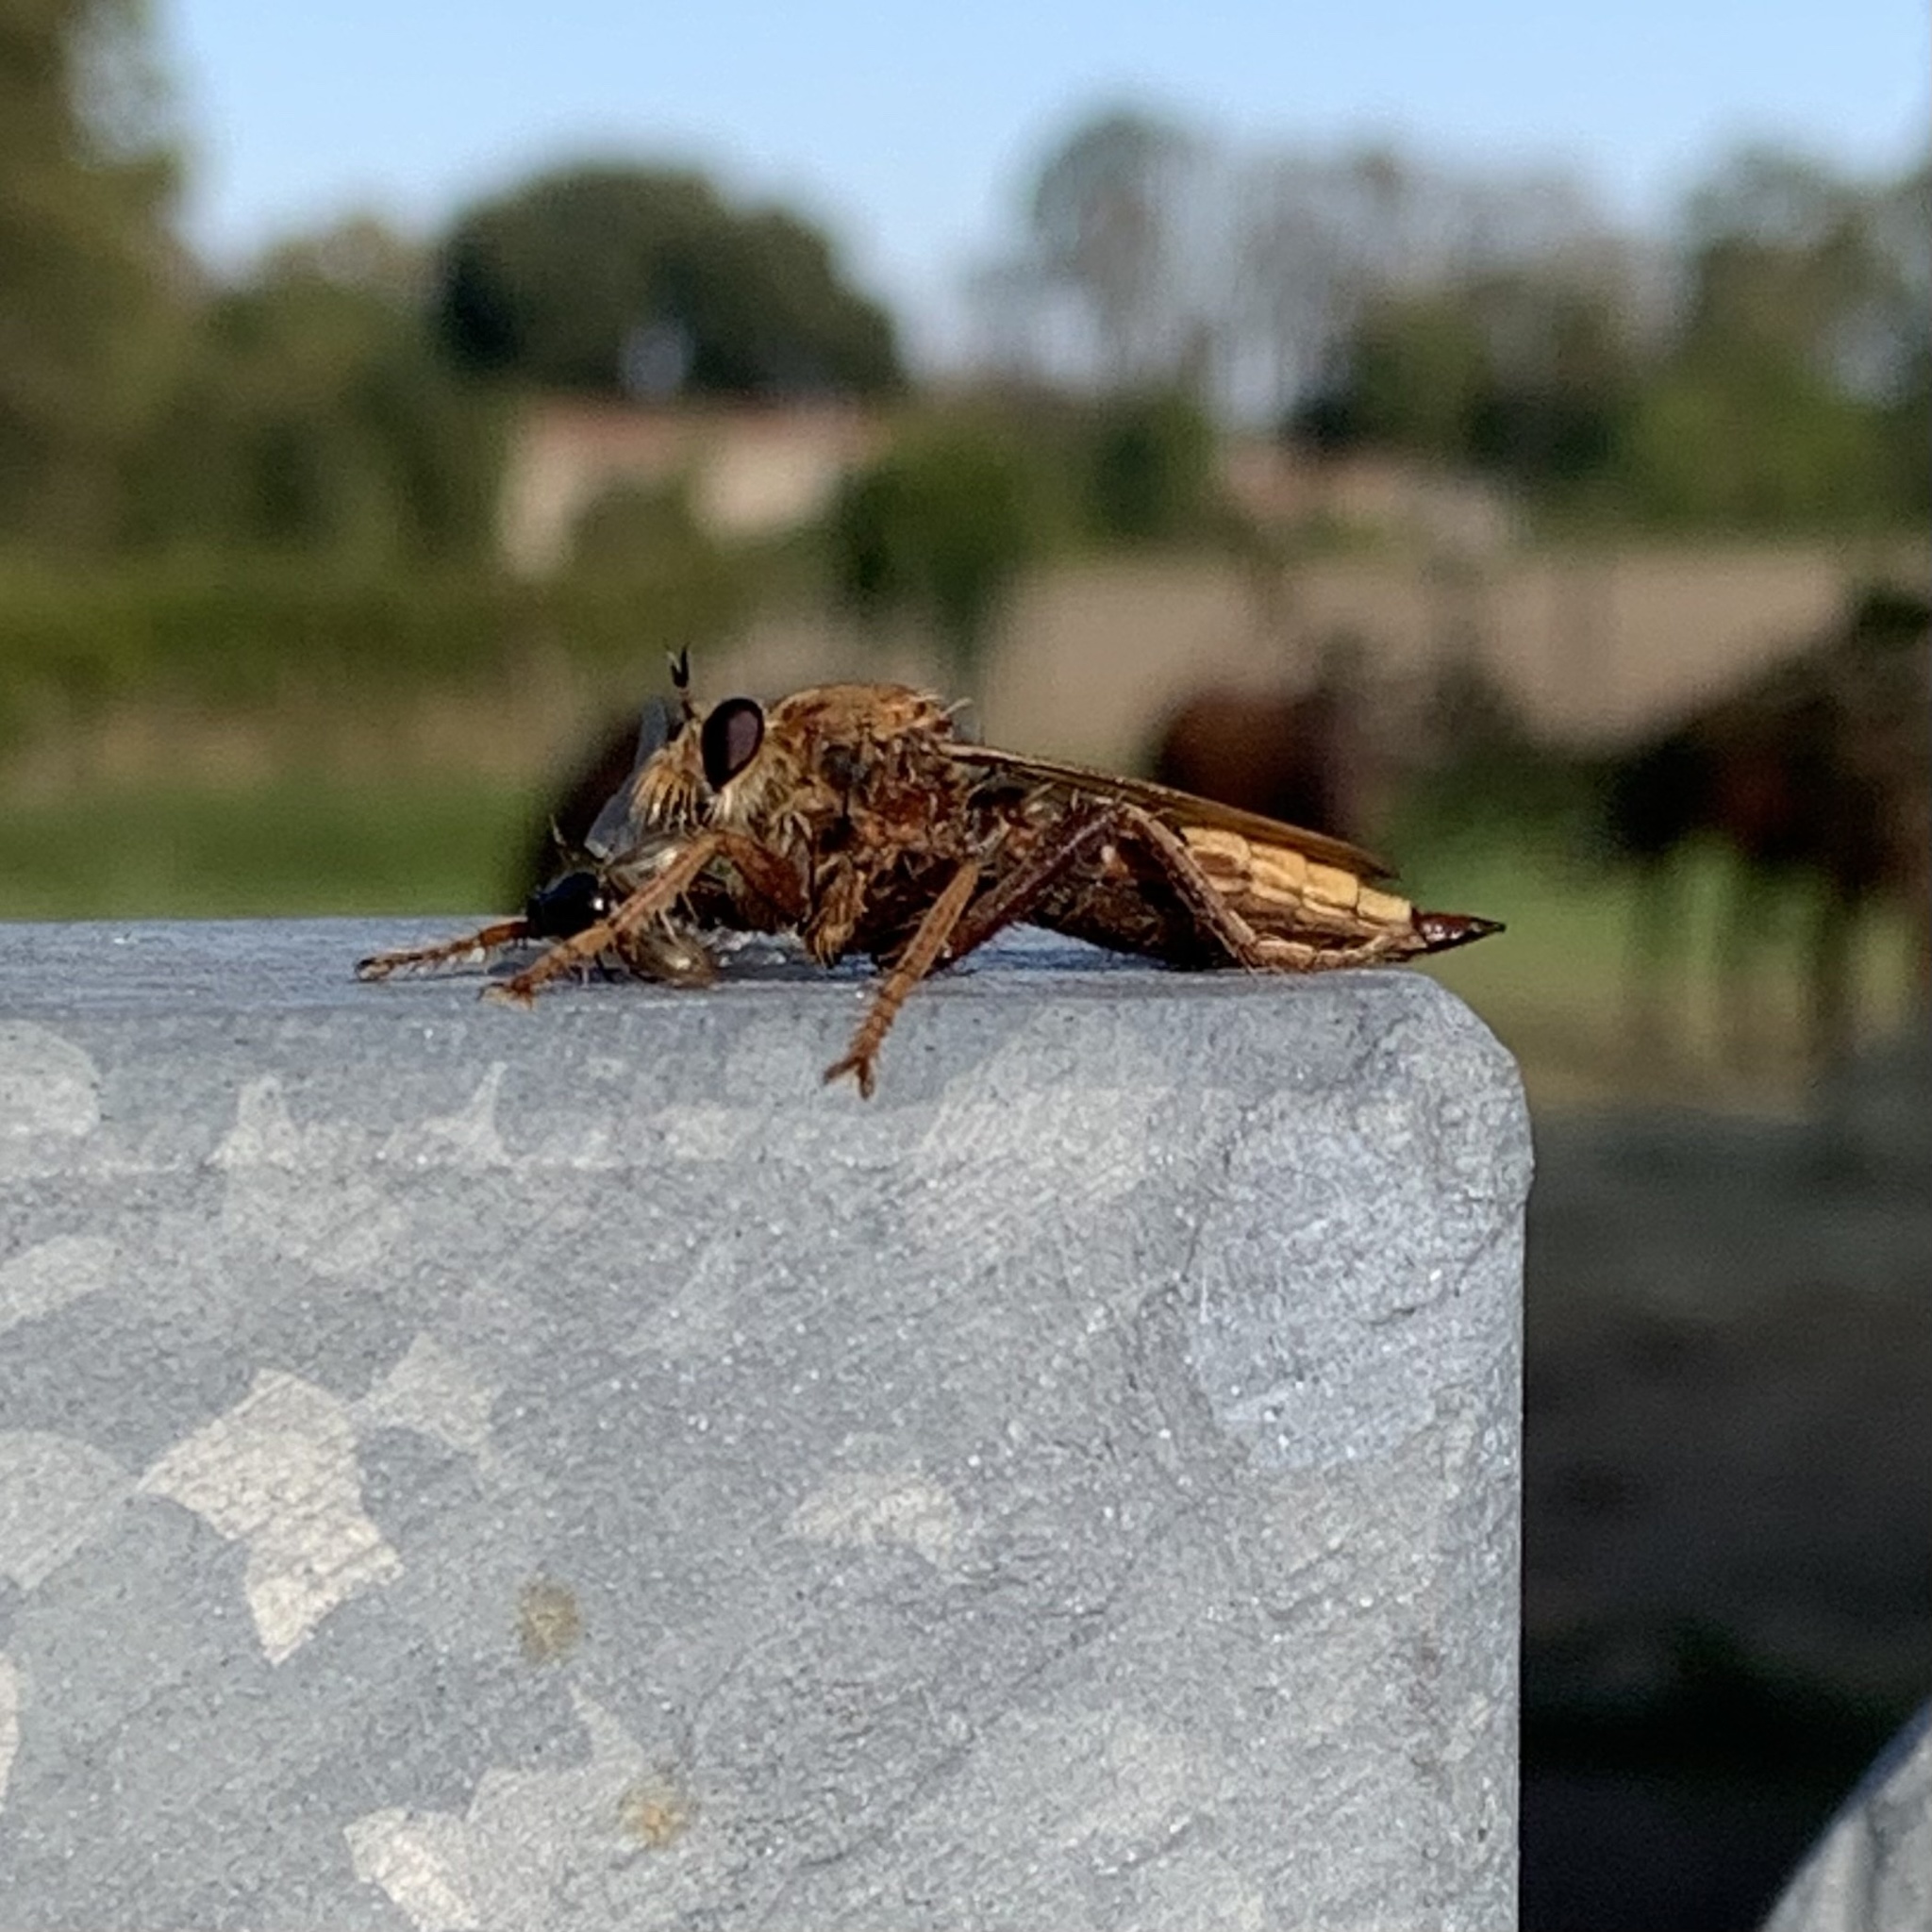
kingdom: Animalia
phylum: Arthropoda
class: Insecta
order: Diptera
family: Asilidae
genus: Asilus
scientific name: Asilus crabroniformis
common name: Hornet robberfly
